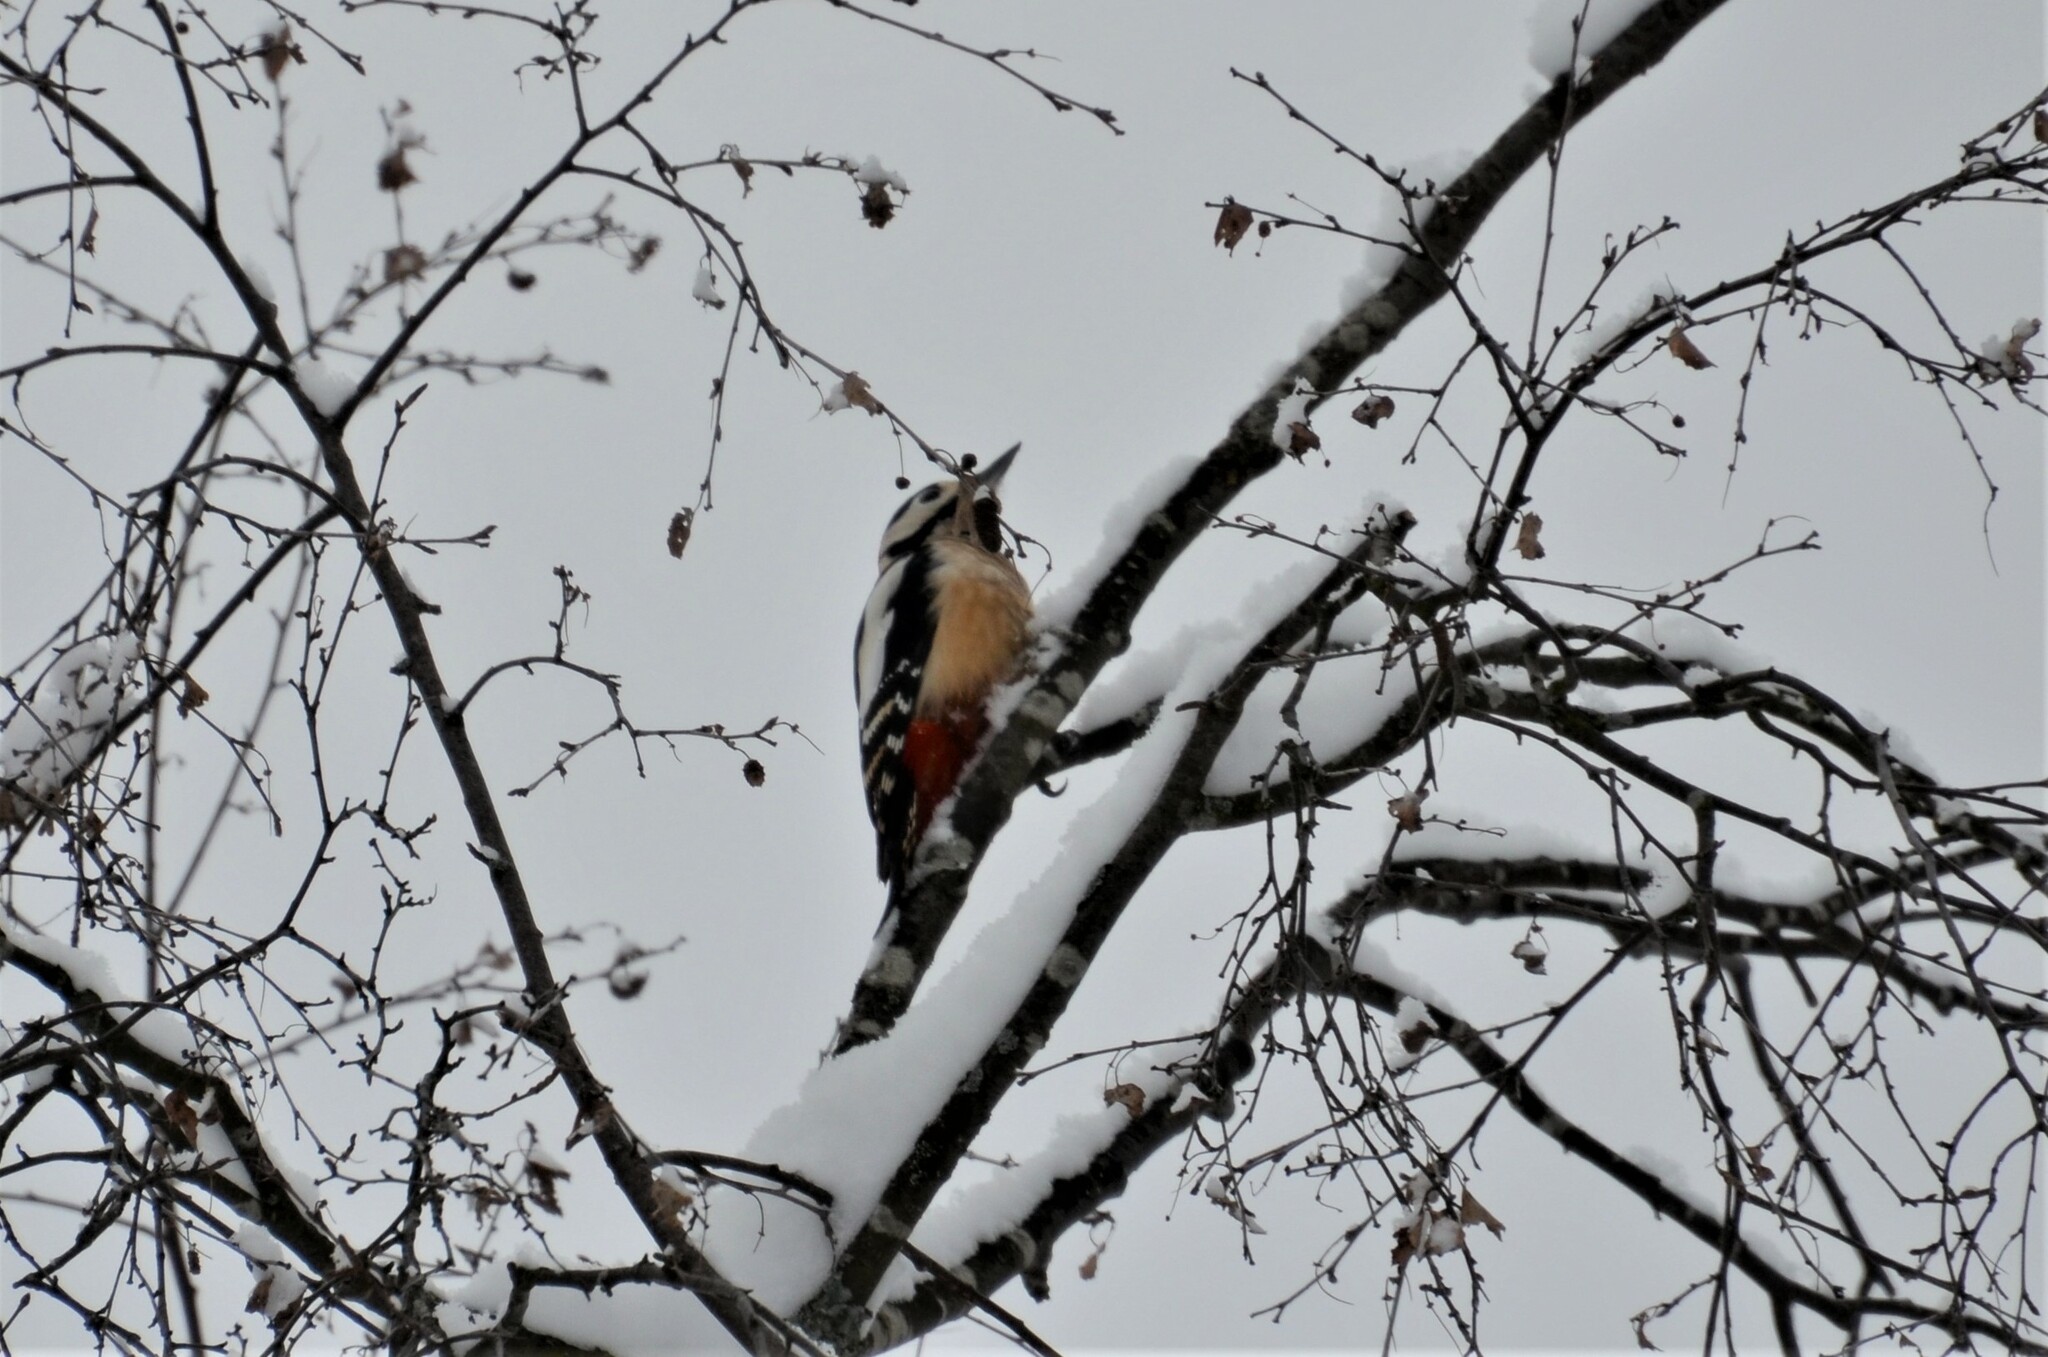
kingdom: Animalia
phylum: Chordata
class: Aves
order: Piciformes
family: Picidae
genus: Dendrocopos
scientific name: Dendrocopos major
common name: Great spotted woodpecker
